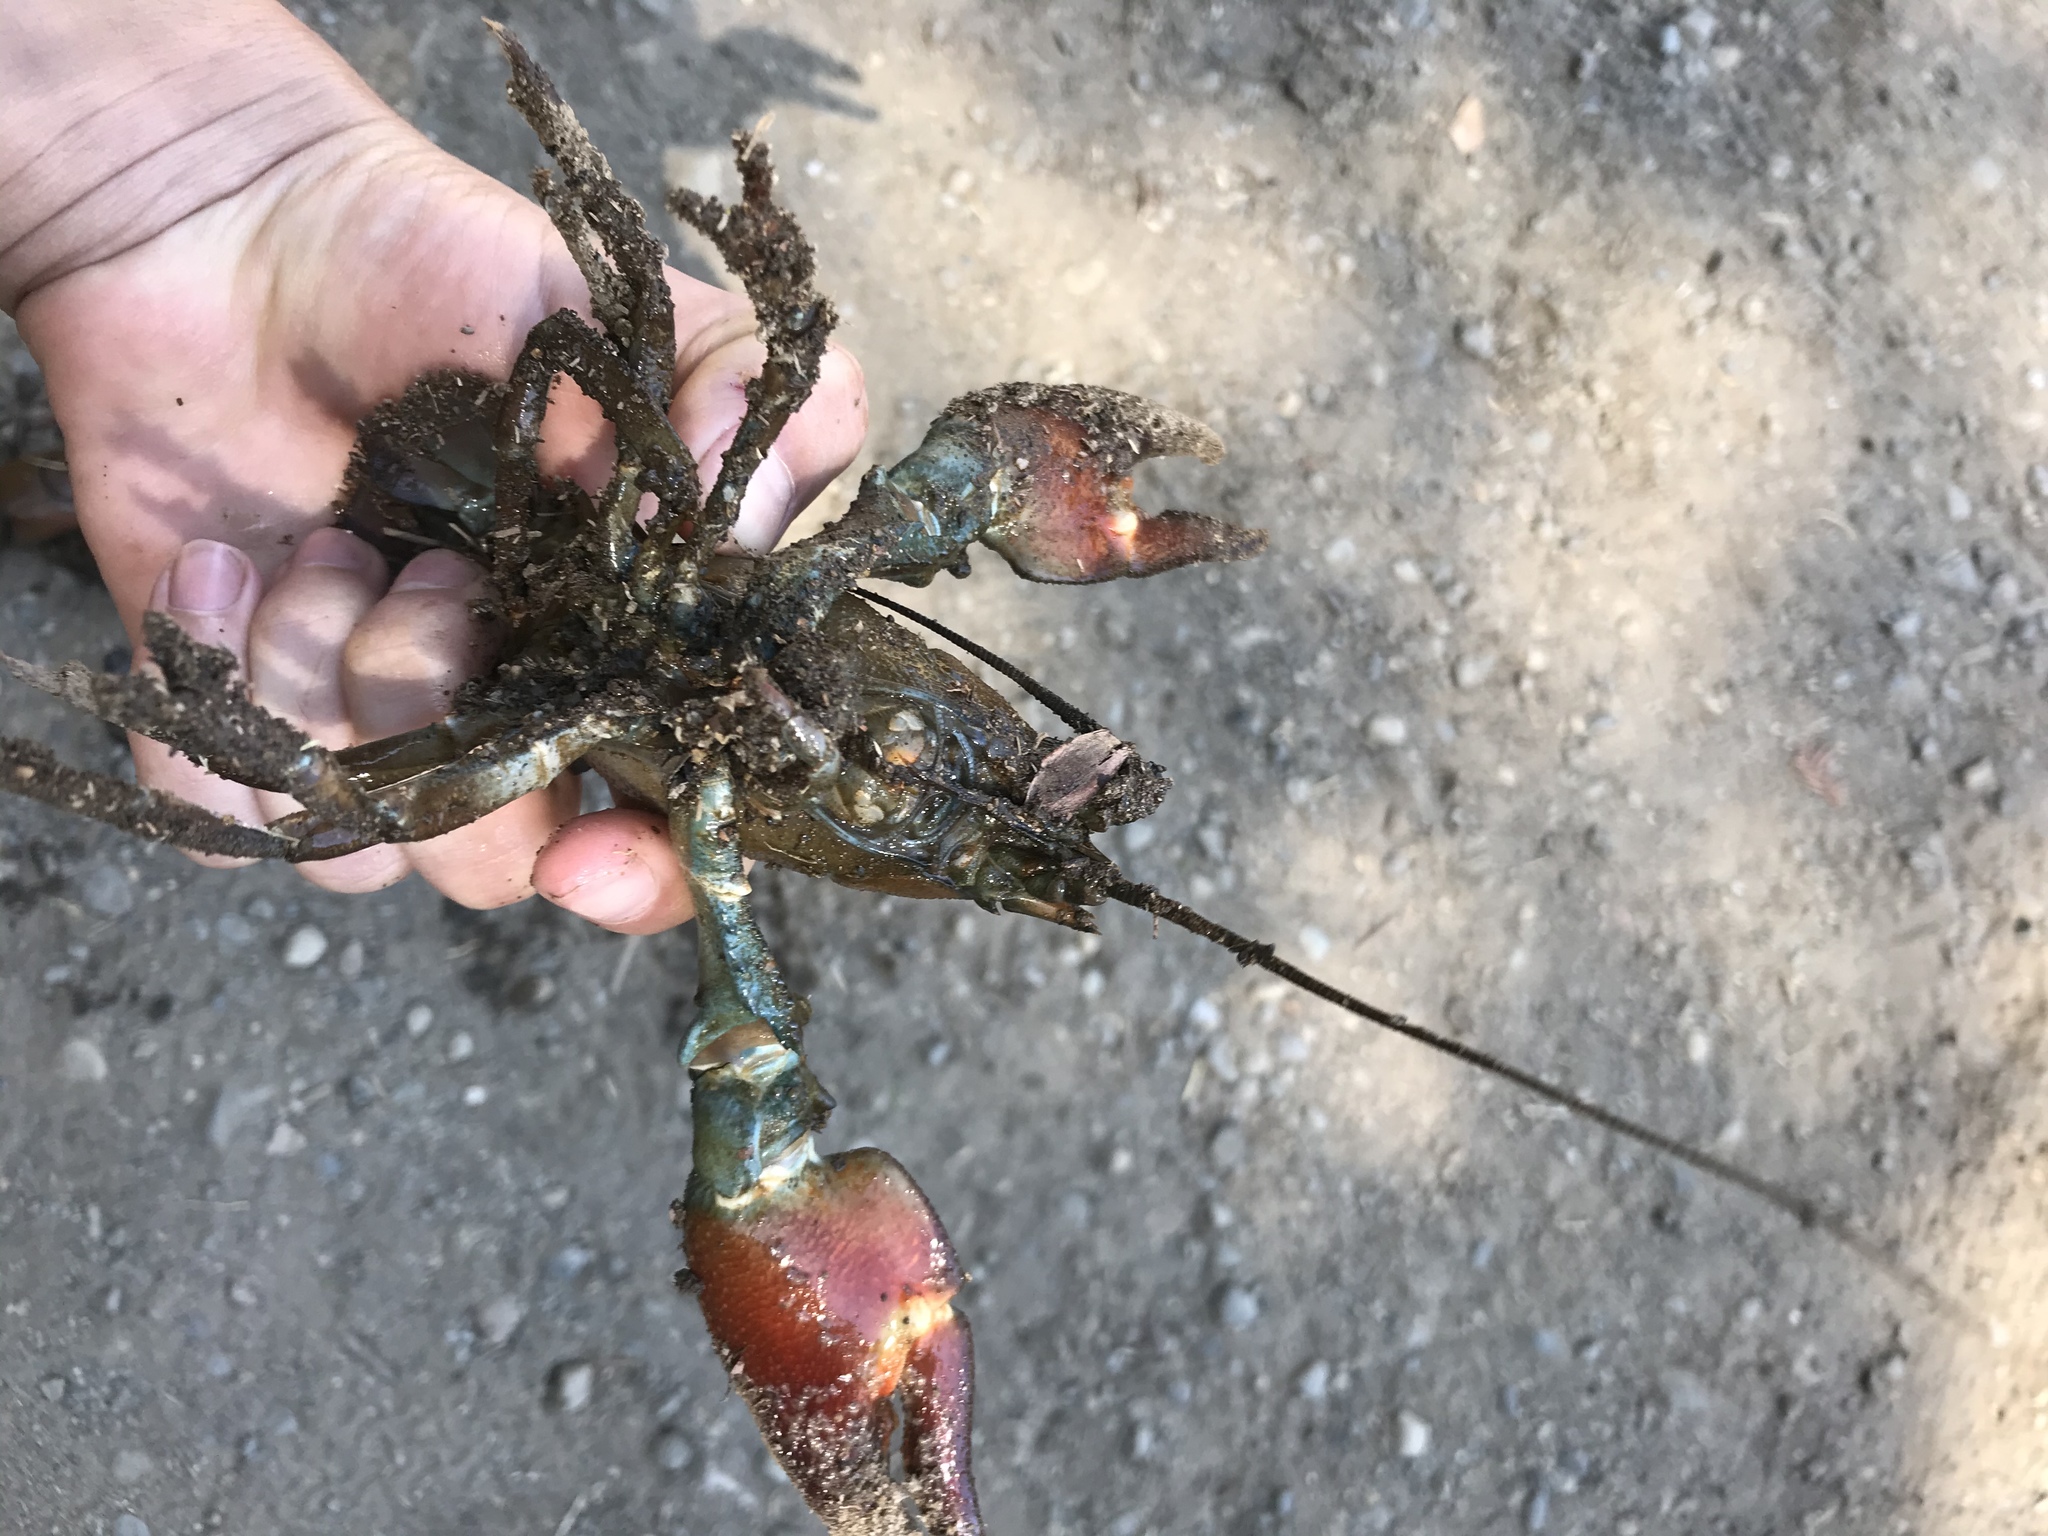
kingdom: Animalia
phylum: Arthropoda
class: Malacostraca
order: Decapoda
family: Astacidae
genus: Pacifastacus
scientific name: Pacifastacus leniusculus
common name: Signal crayfish
